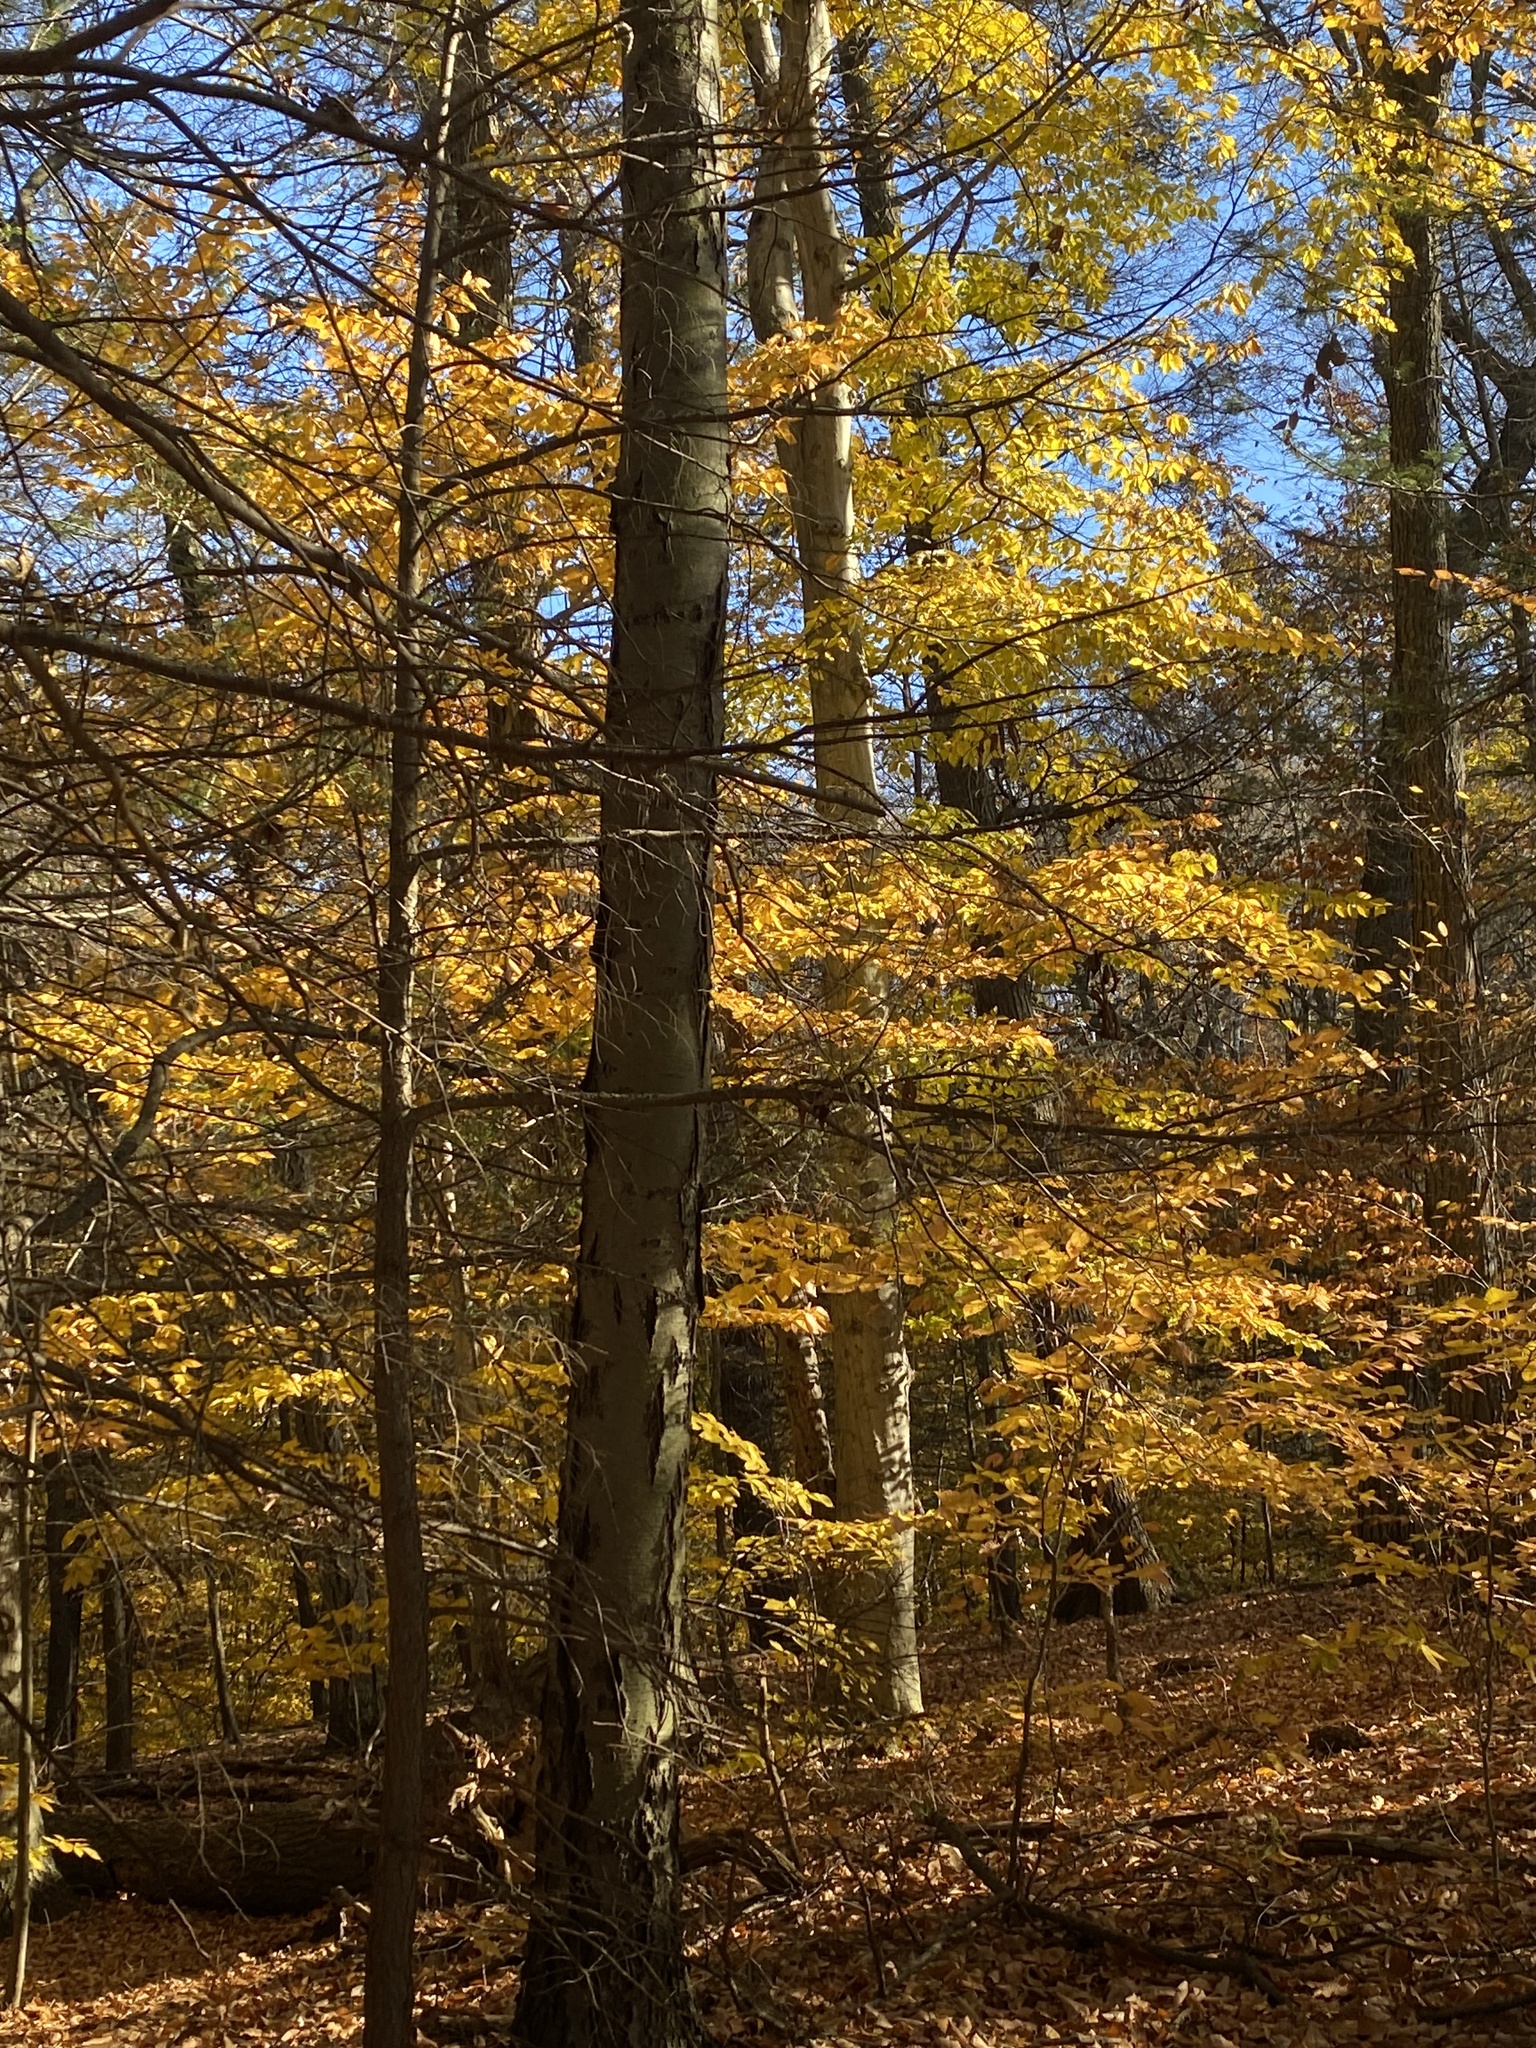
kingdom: Plantae
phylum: Tracheophyta
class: Magnoliopsida
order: Fagales
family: Fagaceae
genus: Fagus
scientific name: Fagus grandifolia
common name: American beech
